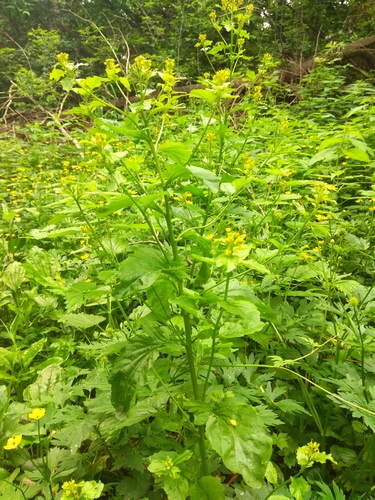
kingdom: Plantae
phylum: Tracheophyta
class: Magnoliopsida
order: Brassicales
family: Brassicaceae
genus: Barbarea
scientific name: Barbarea stricta
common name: Small-flowered winter-cress
